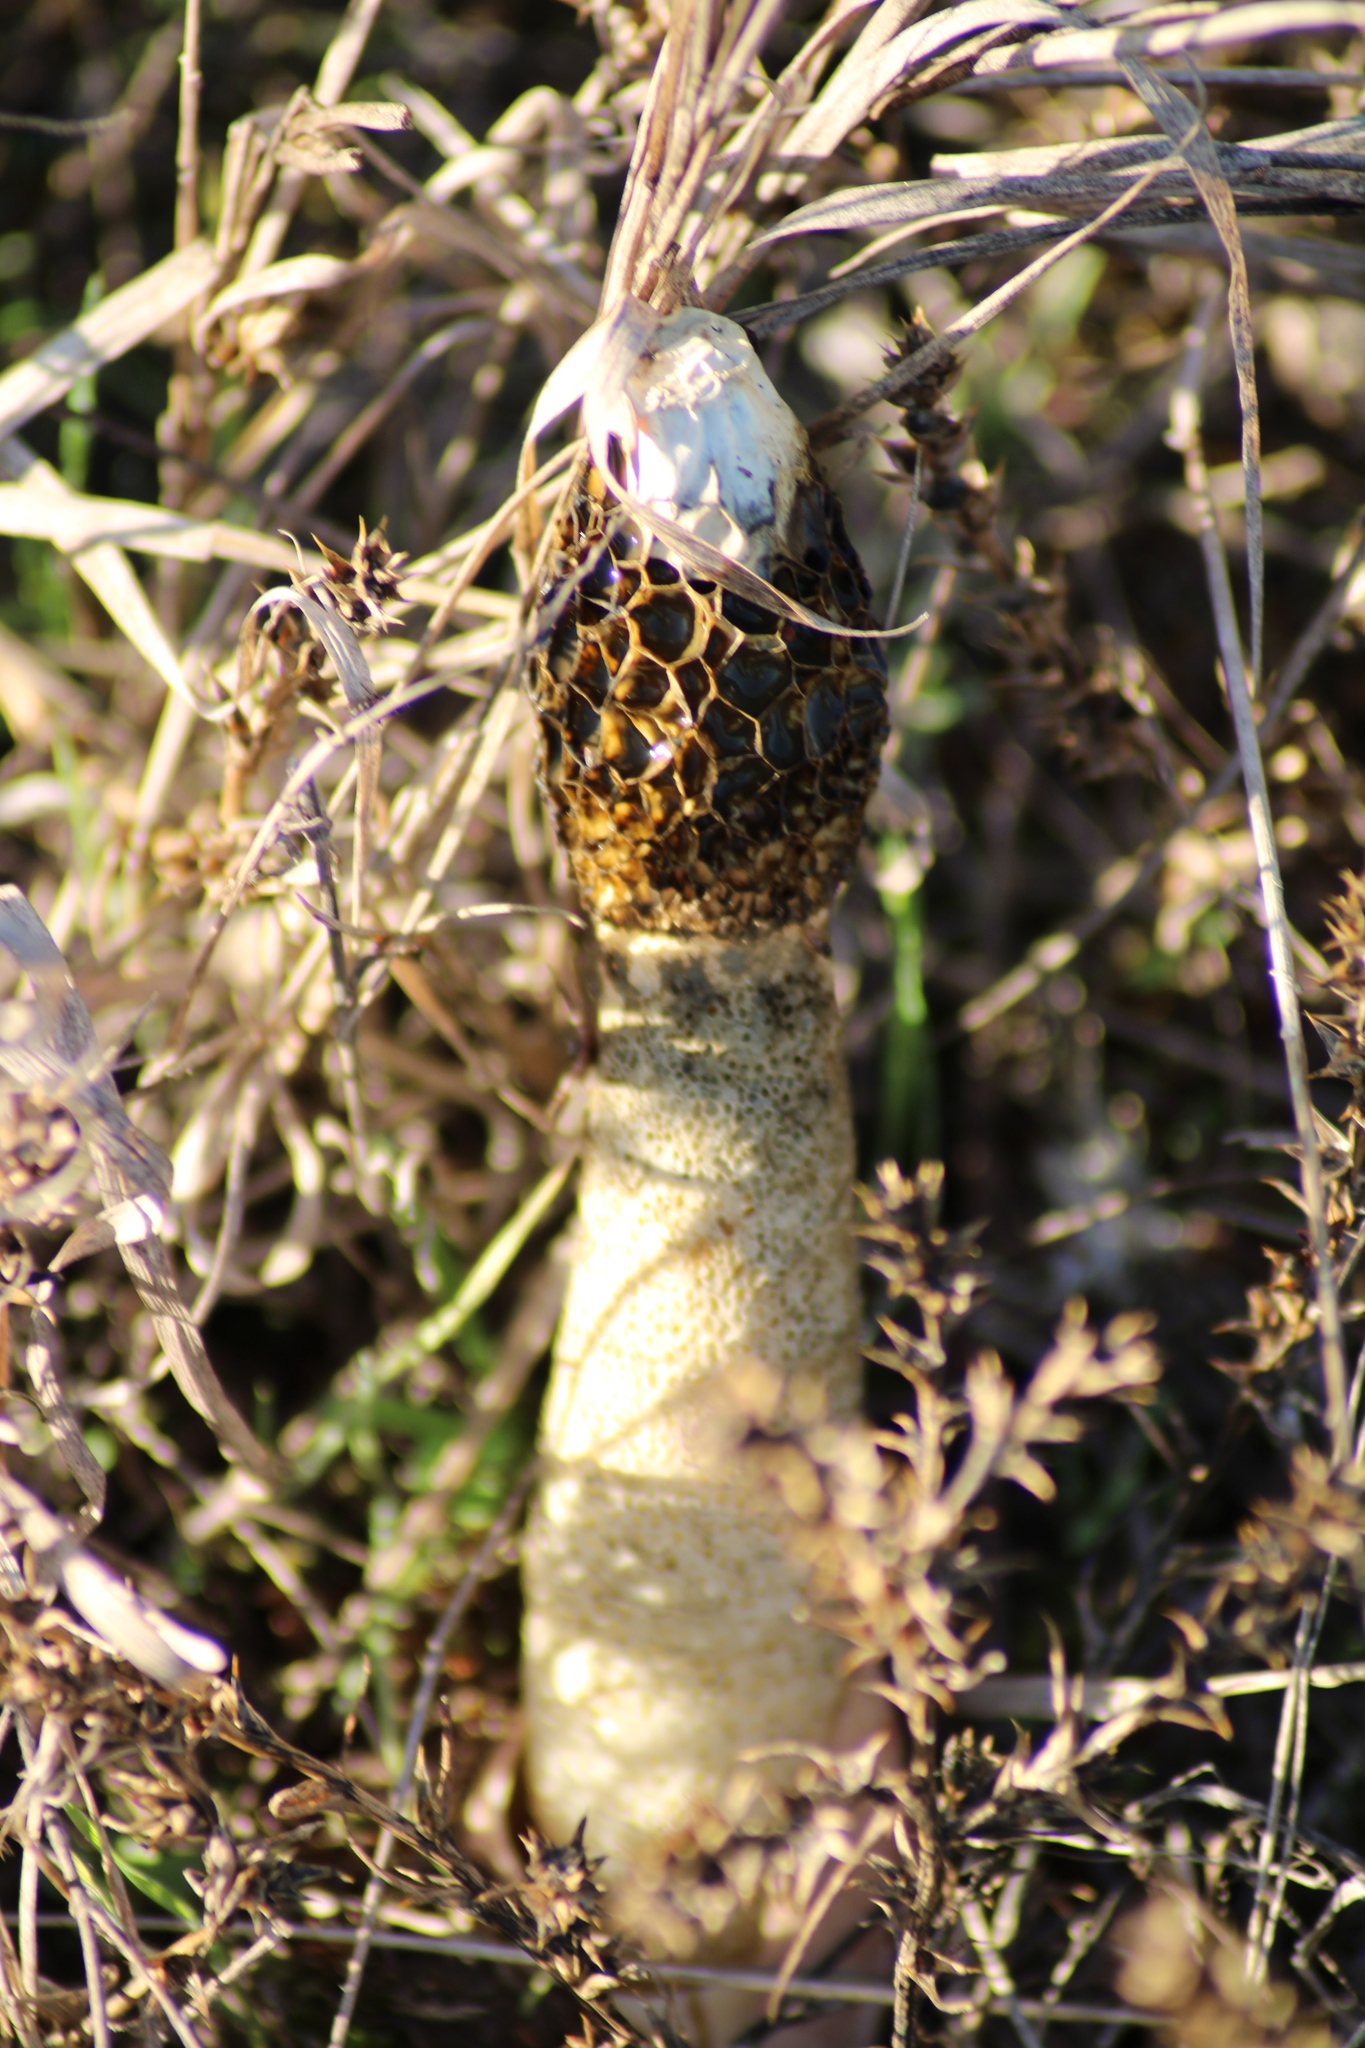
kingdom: Fungi
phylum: Basidiomycota
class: Agaricomycetes
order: Phallales
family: Phallaceae
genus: Phallus
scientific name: Phallus hadriani
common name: Sand stinkhorn
